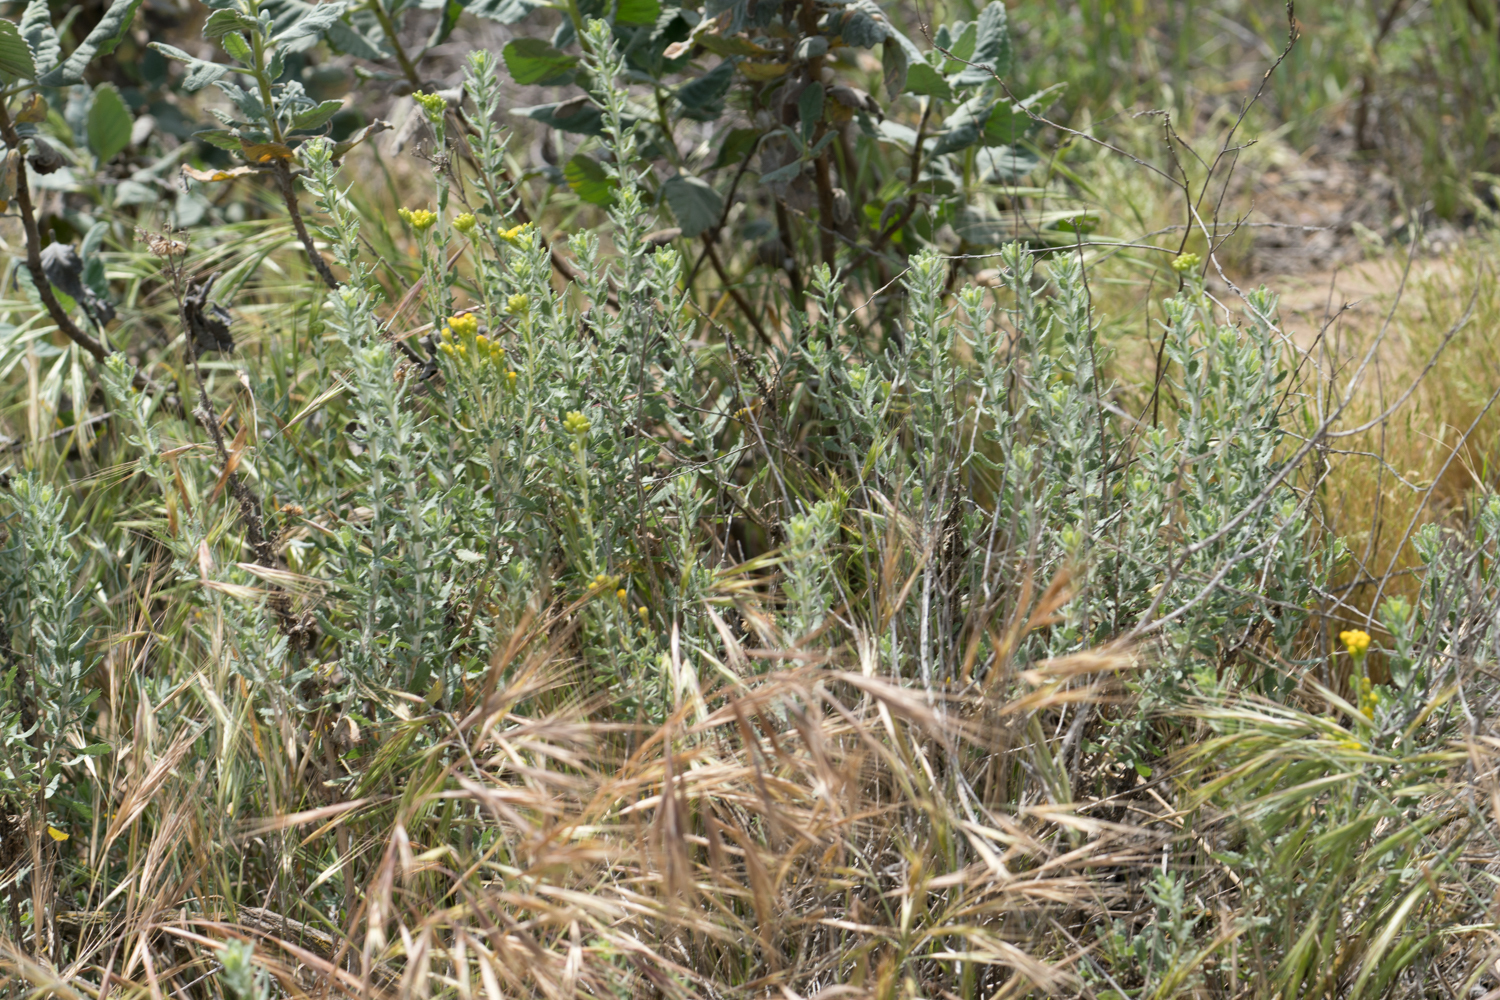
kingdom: Plantae
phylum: Tracheophyta
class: Magnoliopsida
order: Asterales
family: Asteraceae
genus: Isocoma
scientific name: Isocoma menziesii
